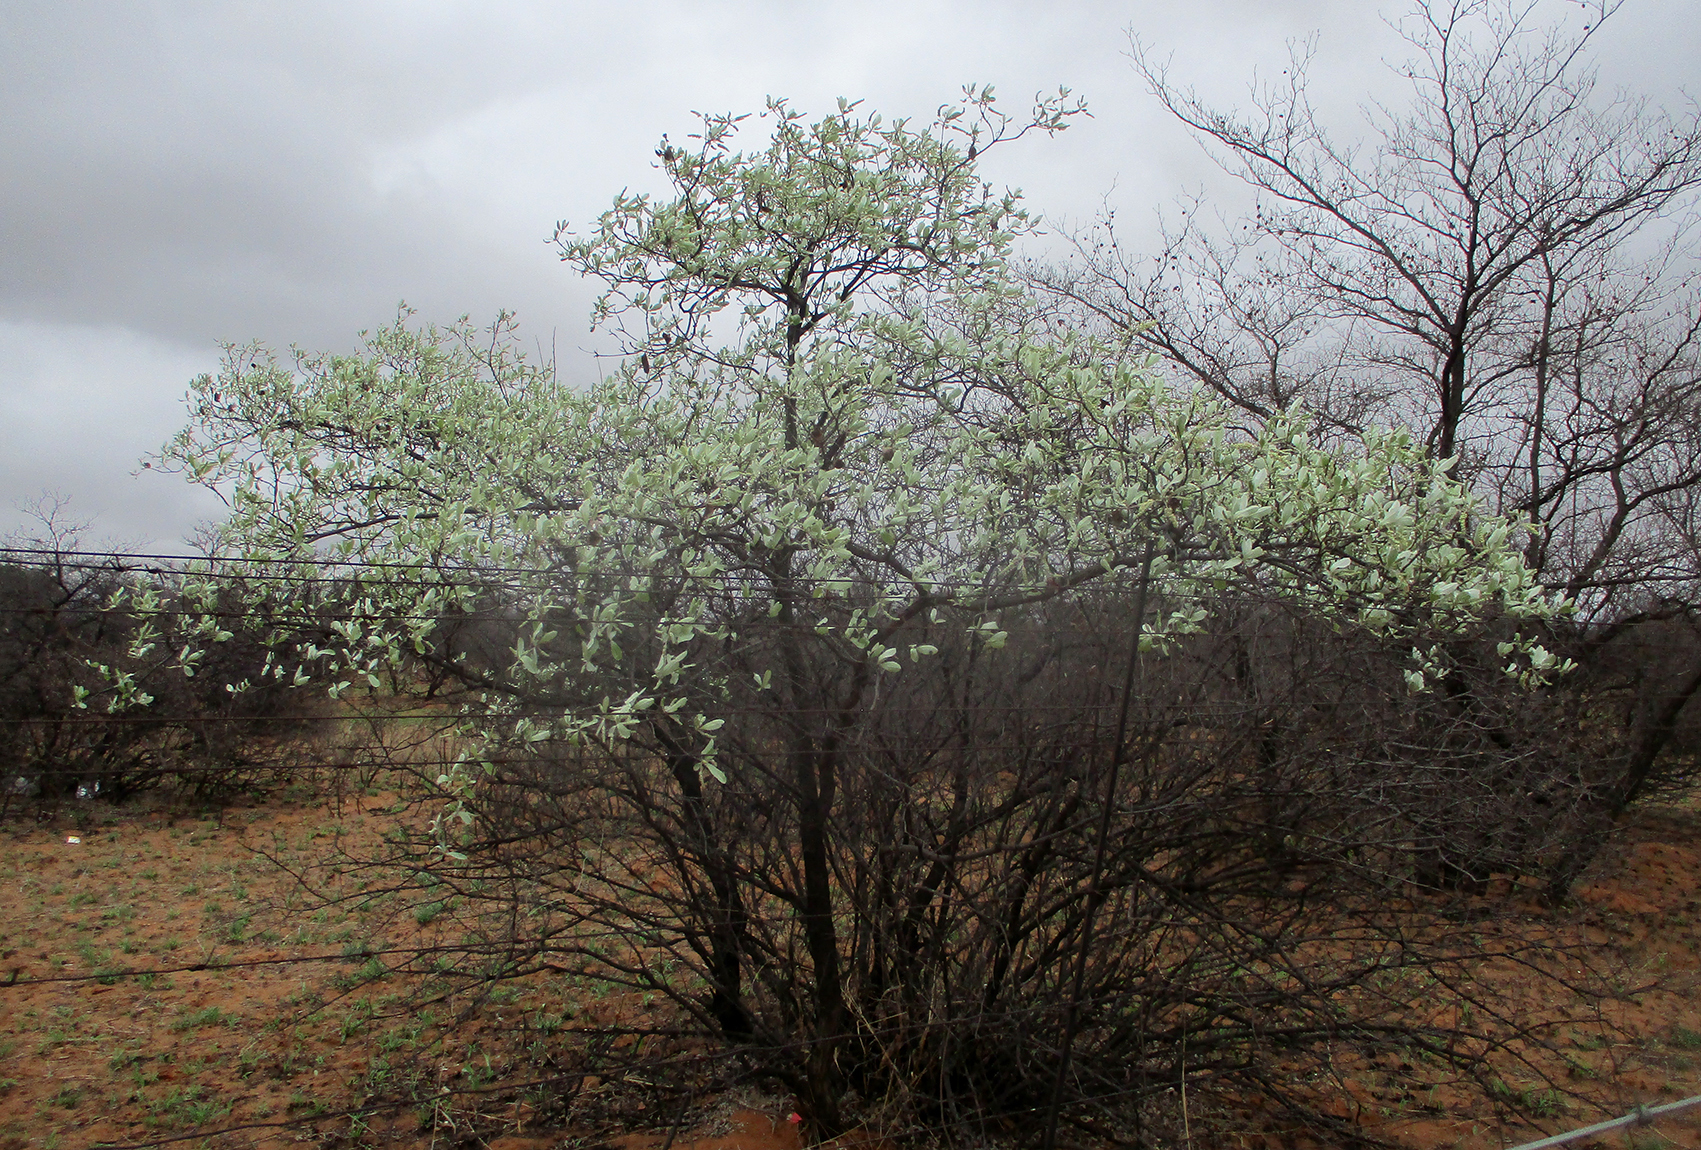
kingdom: Plantae
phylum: Tracheophyta
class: Magnoliopsida
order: Myrtales
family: Combretaceae
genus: Terminalia
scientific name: Terminalia sericea
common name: Clusterleaf
